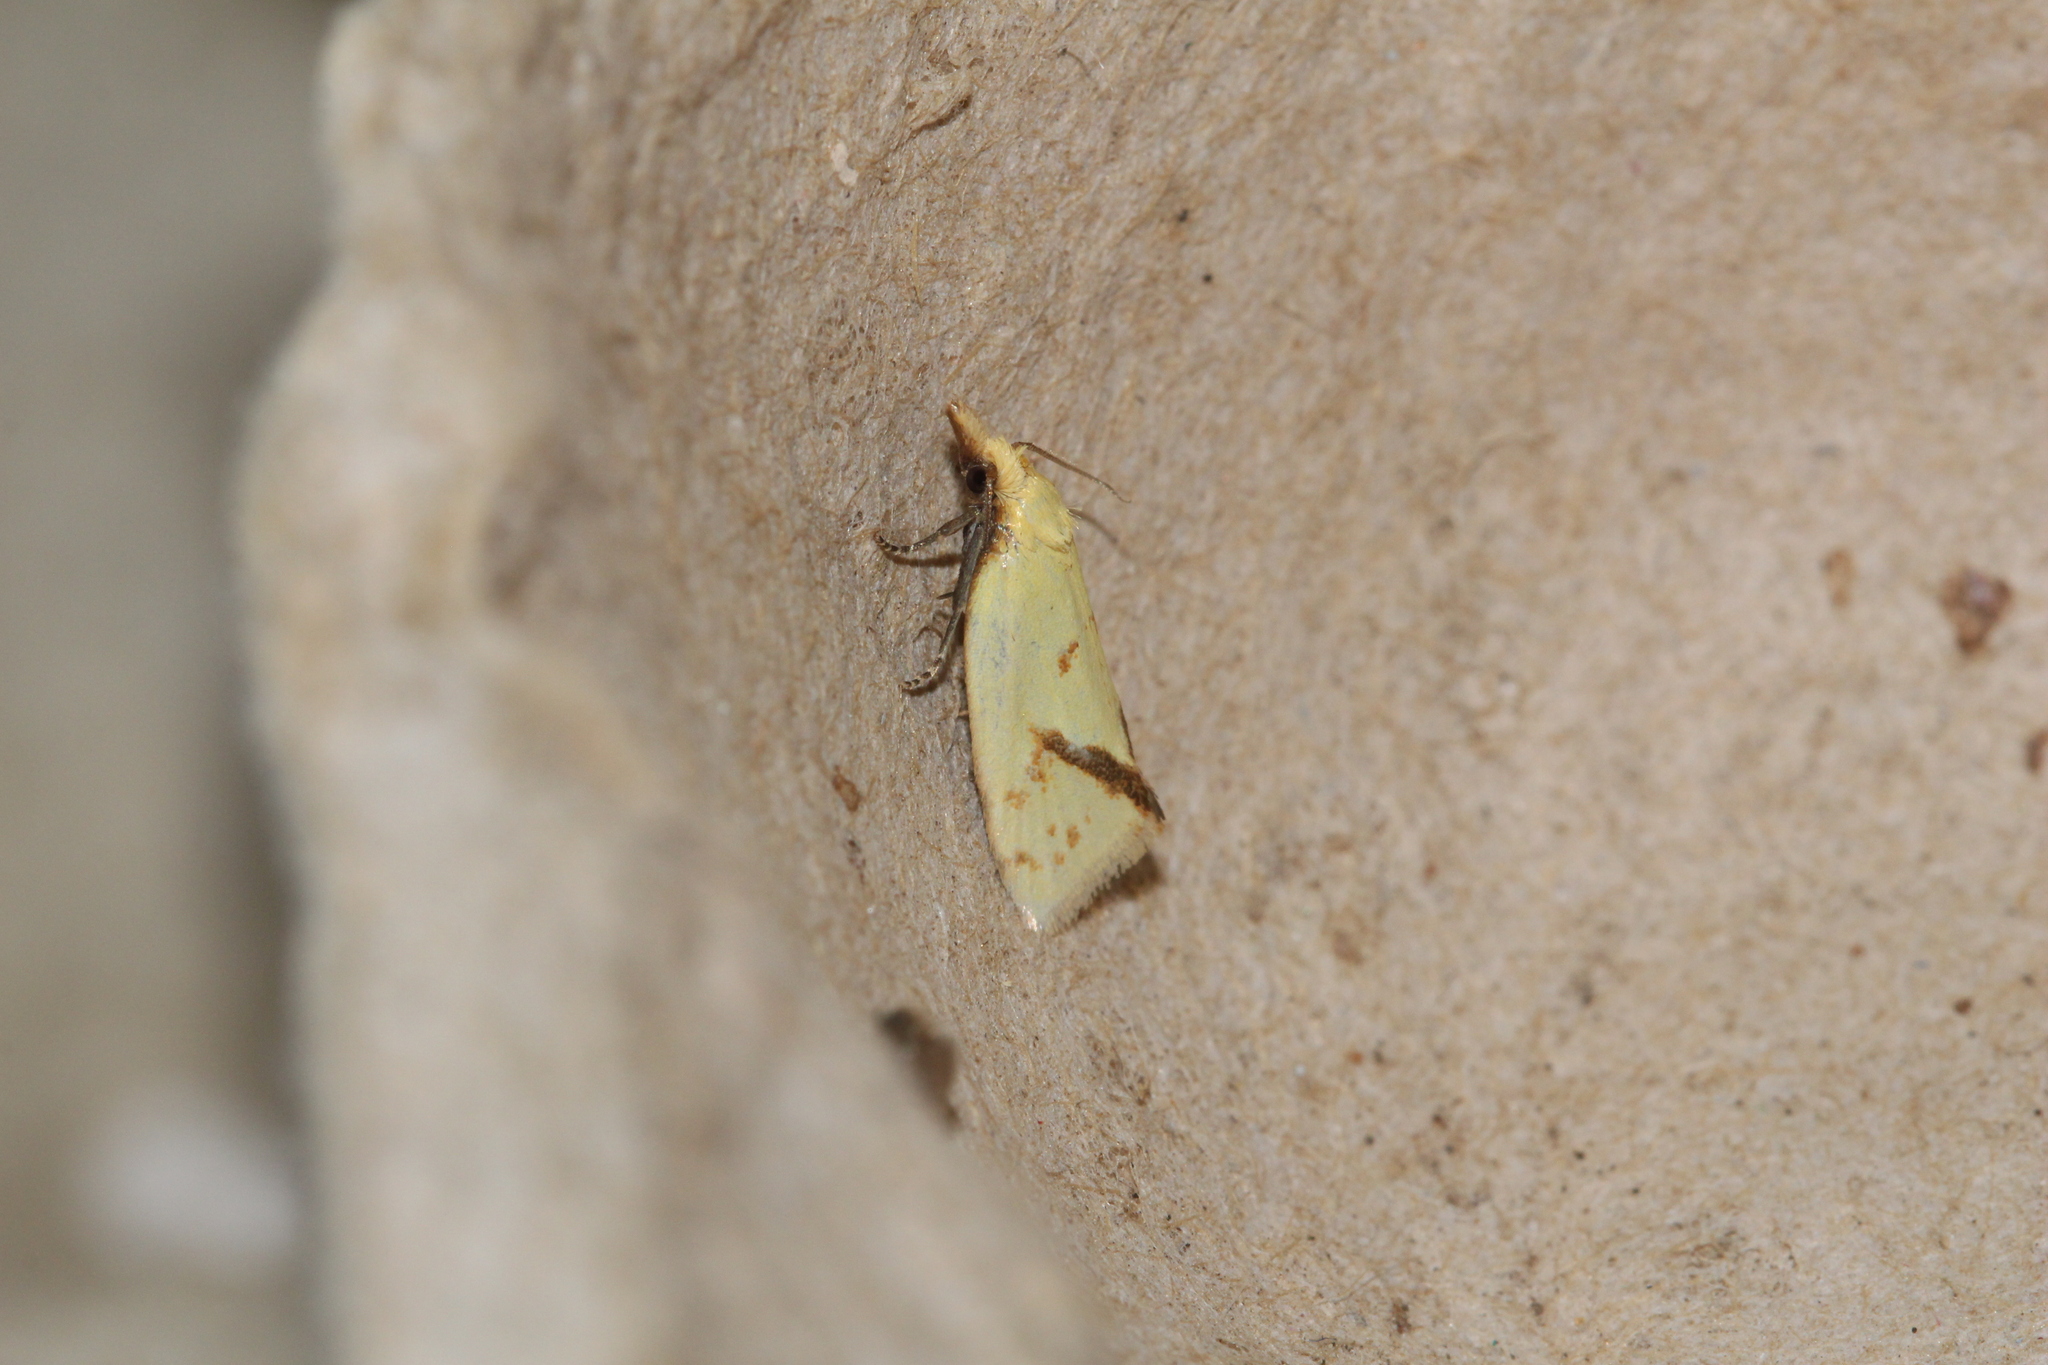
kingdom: Animalia
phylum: Arthropoda
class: Insecta
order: Lepidoptera
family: Tortricidae
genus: Agapeta
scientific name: Agapeta hamana
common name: Common yellow conch
